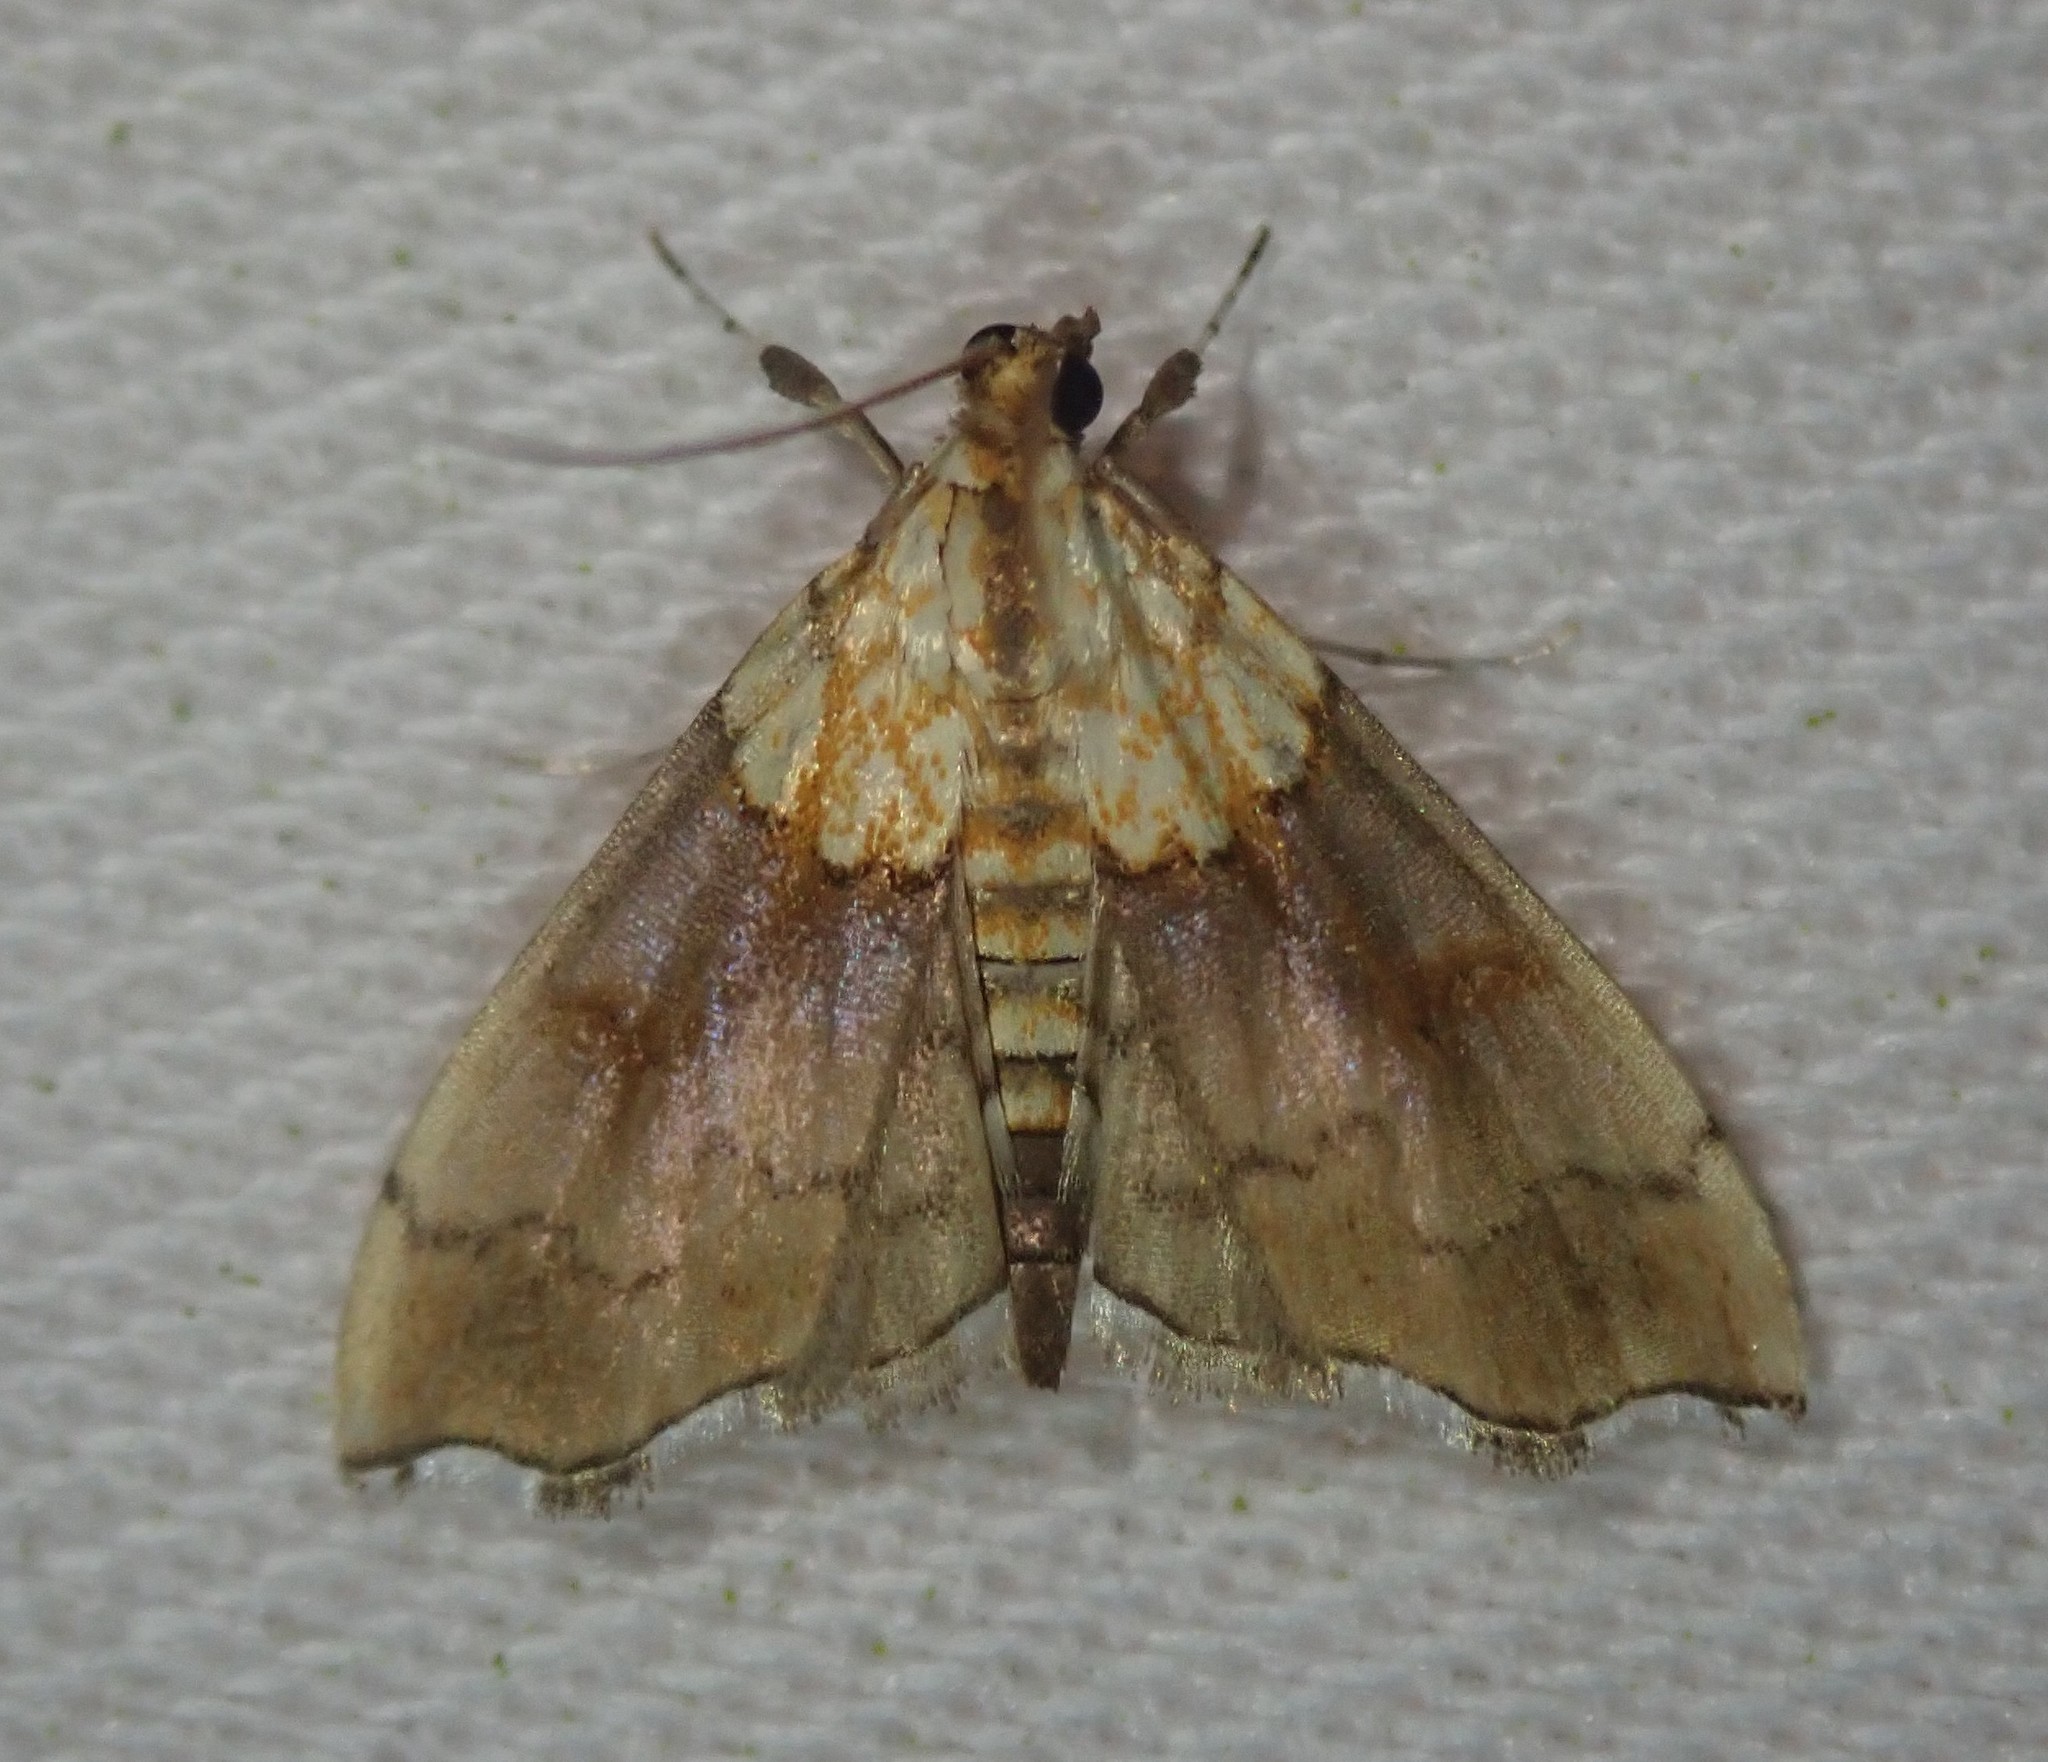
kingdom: Animalia
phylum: Arthropoda
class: Insecta
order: Lepidoptera
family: Crambidae
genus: Agrotera
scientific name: Agrotera nemoralis
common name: Beautiful pearl
